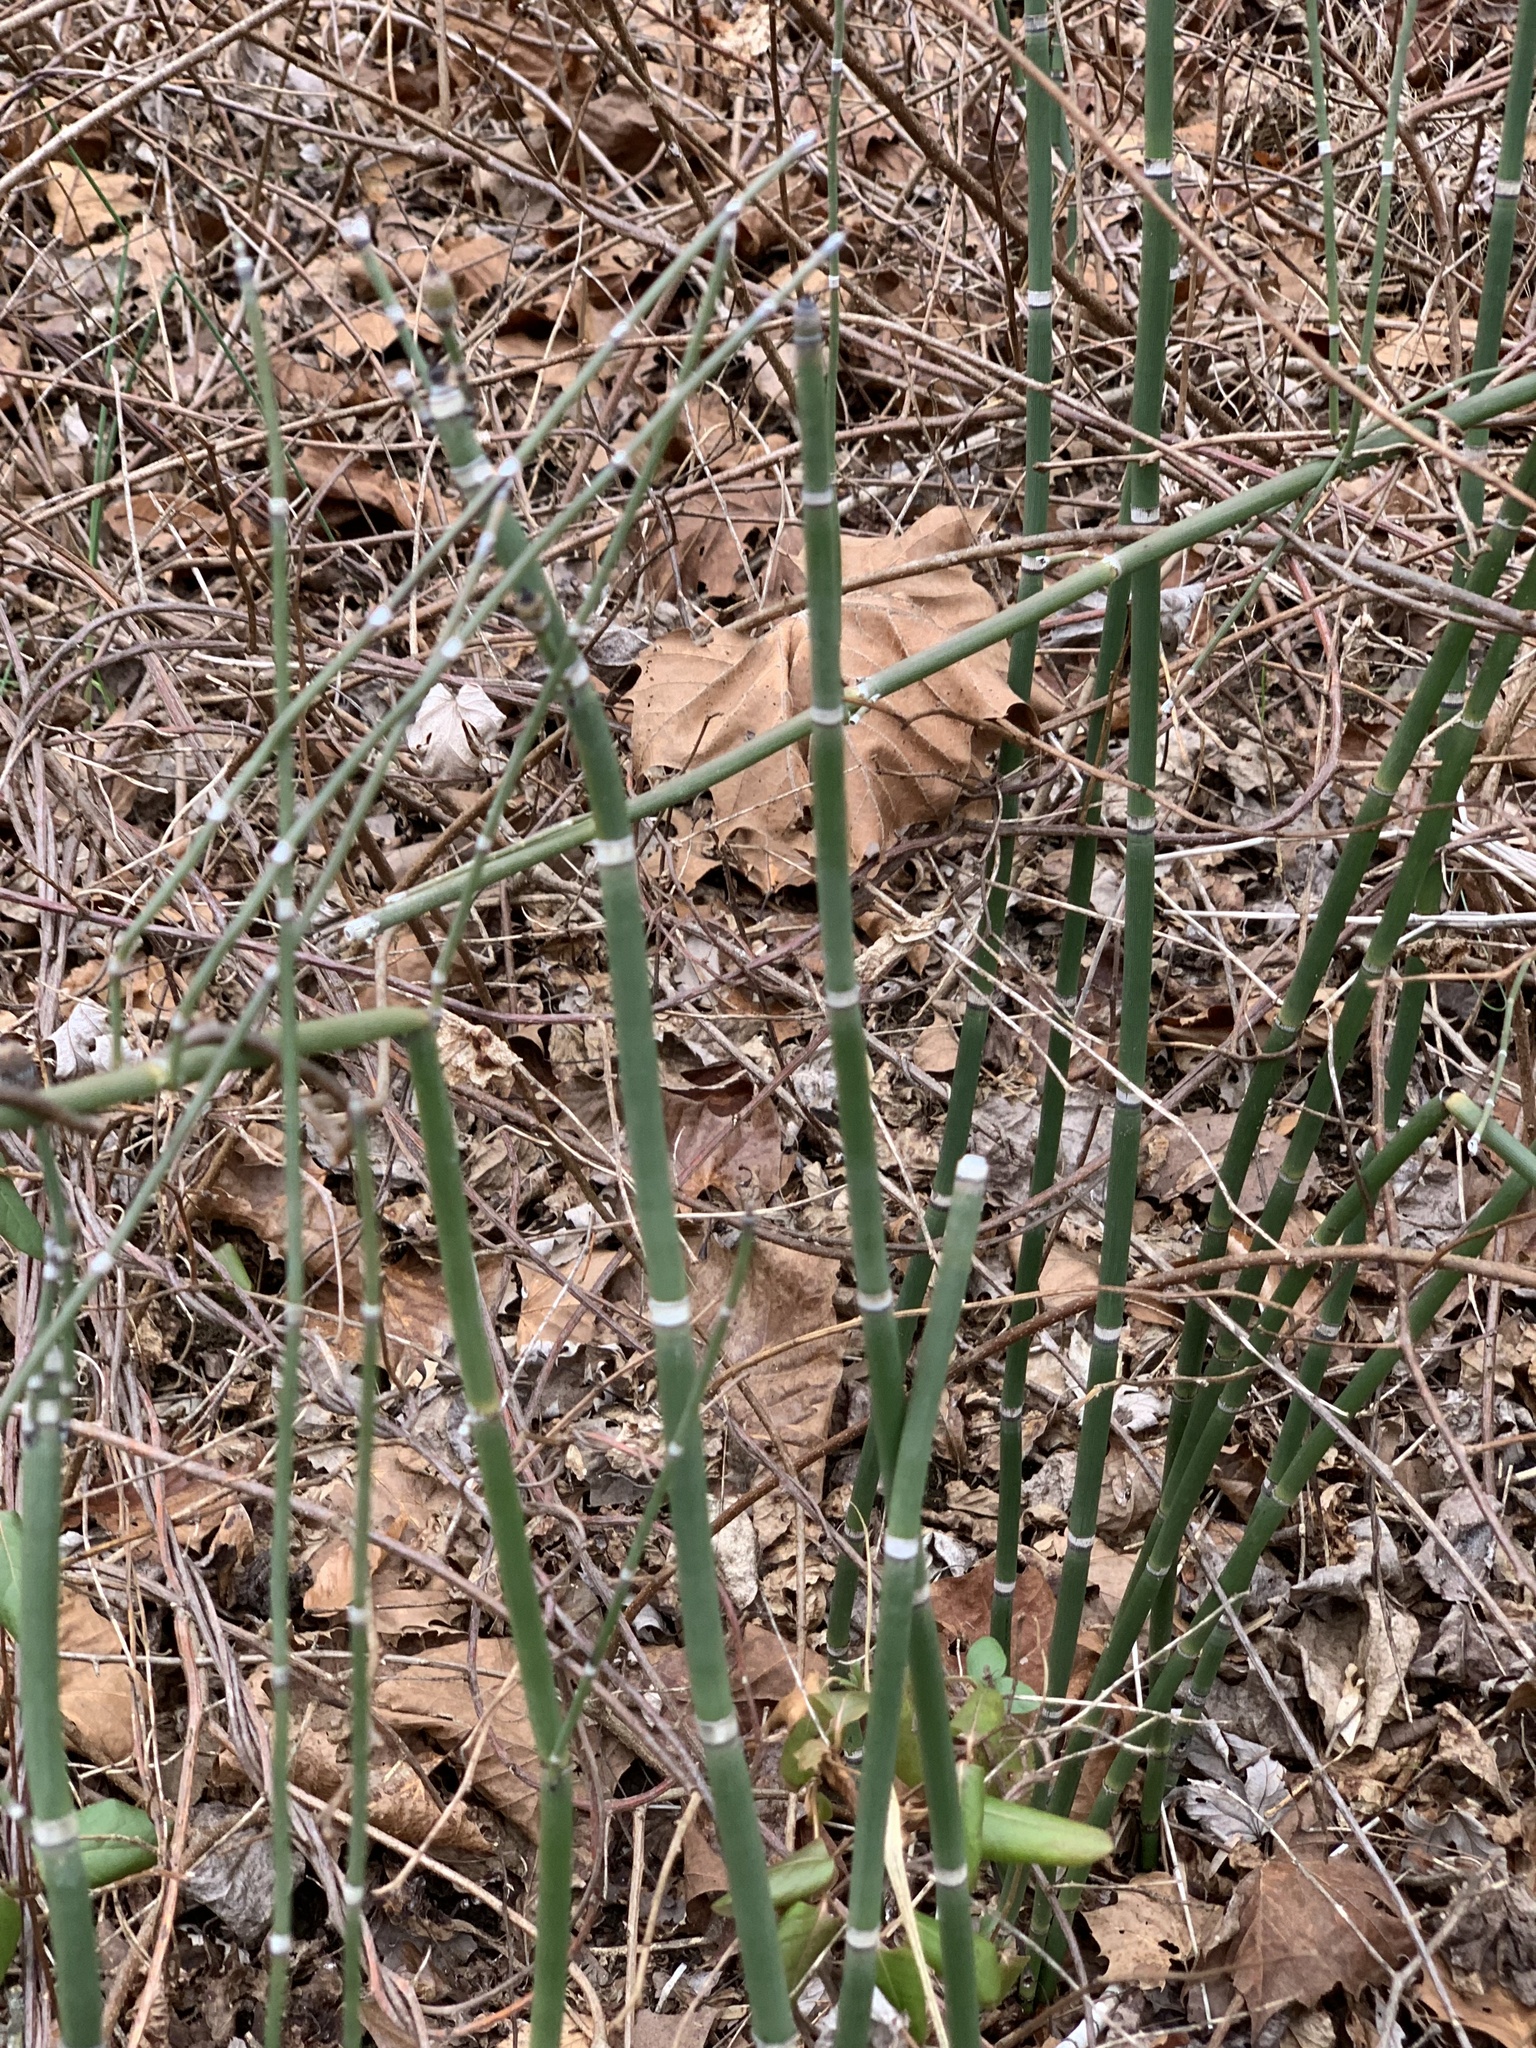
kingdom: Plantae
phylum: Tracheophyta
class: Polypodiopsida
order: Equisetales
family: Equisetaceae
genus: Equisetum
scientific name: Equisetum praealtum
